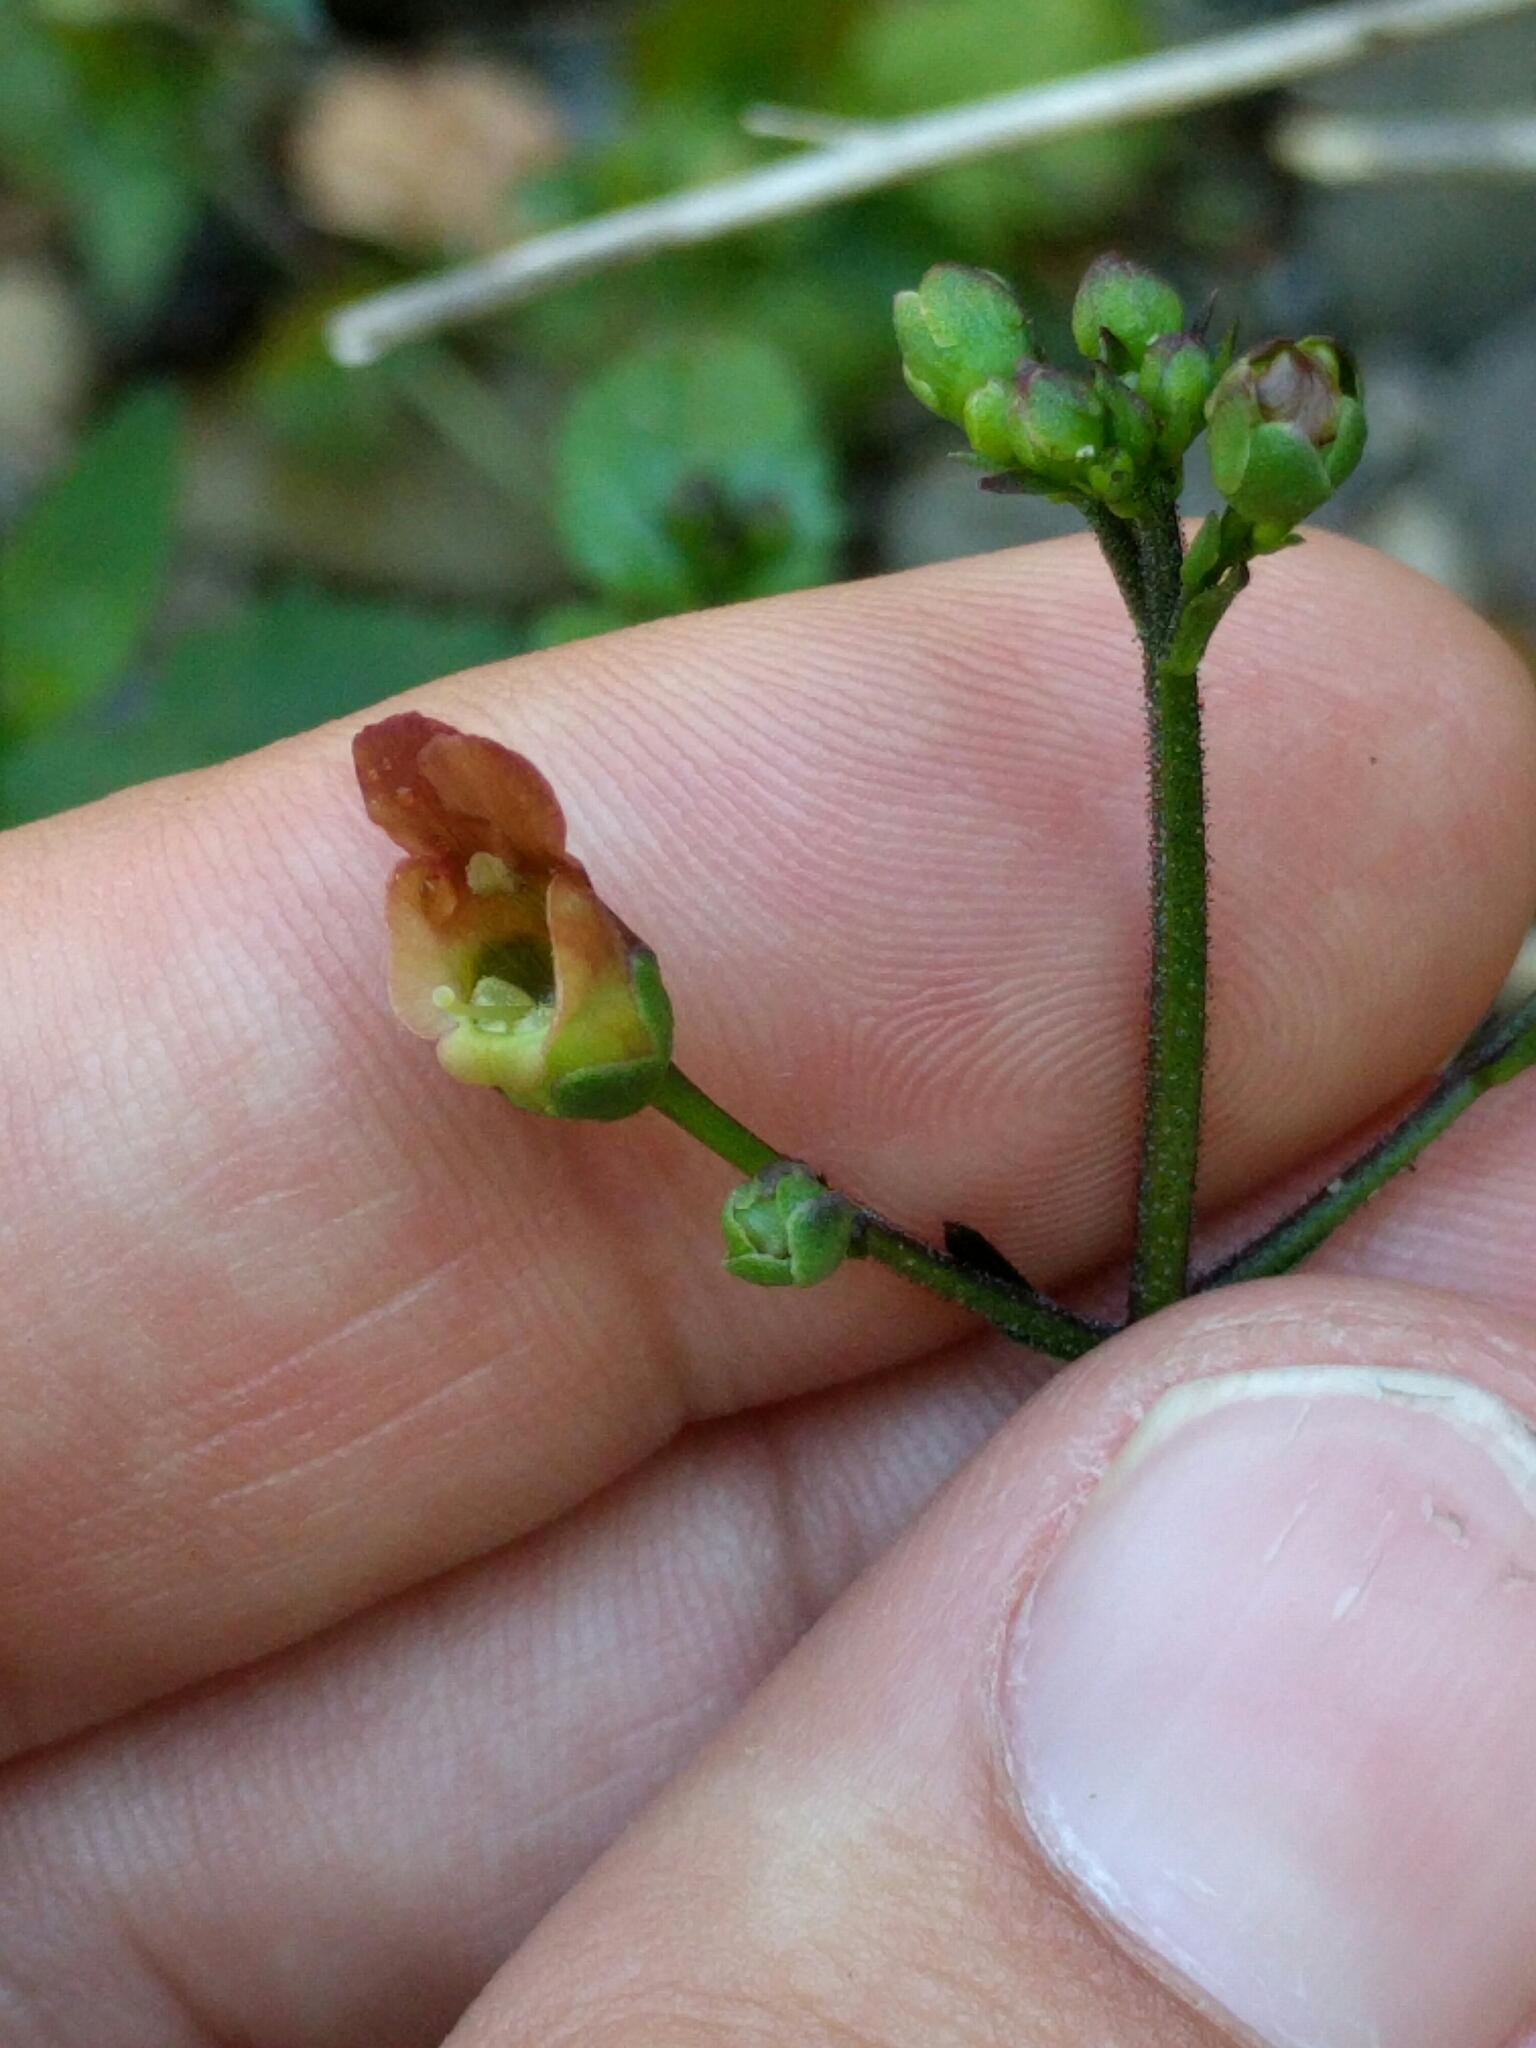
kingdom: Plantae
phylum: Tracheophyta
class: Magnoliopsida
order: Lamiales
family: Scrophulariaceae
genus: Scrophularia
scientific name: Scrophularia californica
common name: California figwort
